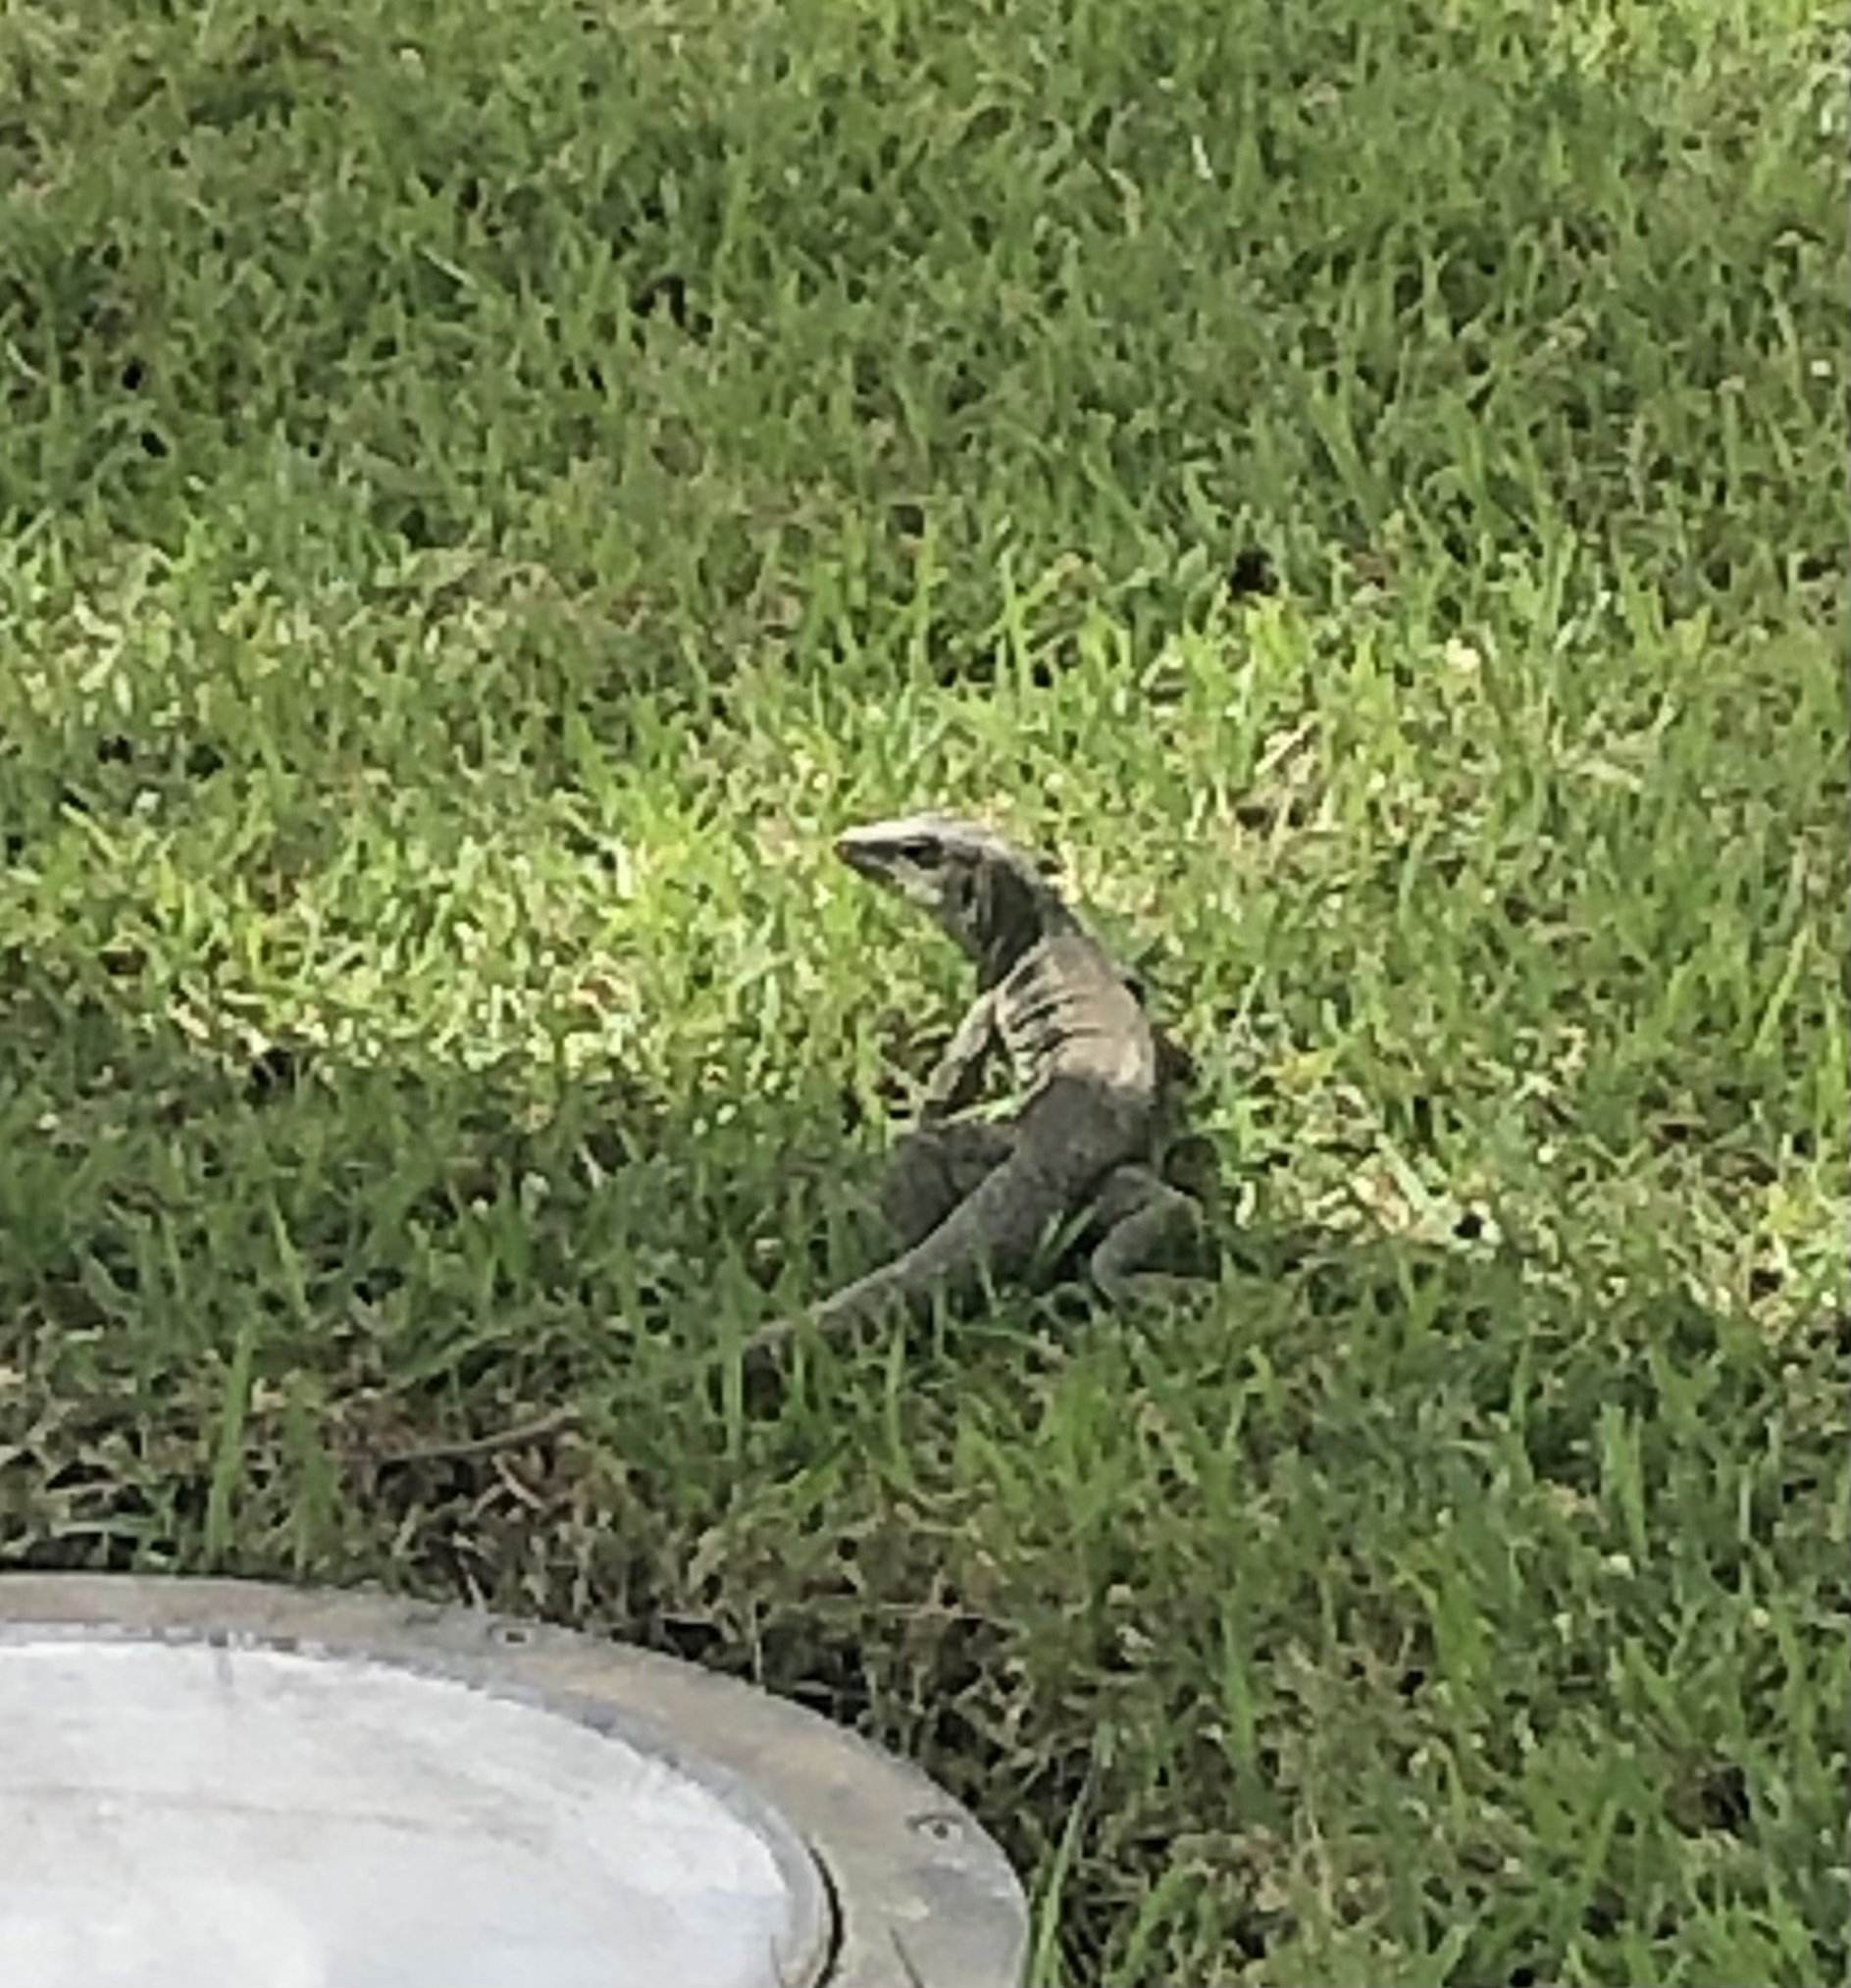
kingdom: Animalia
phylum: Chordata
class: Squamata
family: Teiidae
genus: Pholidoscelis
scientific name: Pholidoscelis exsul
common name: Common puerto rican ameiva
